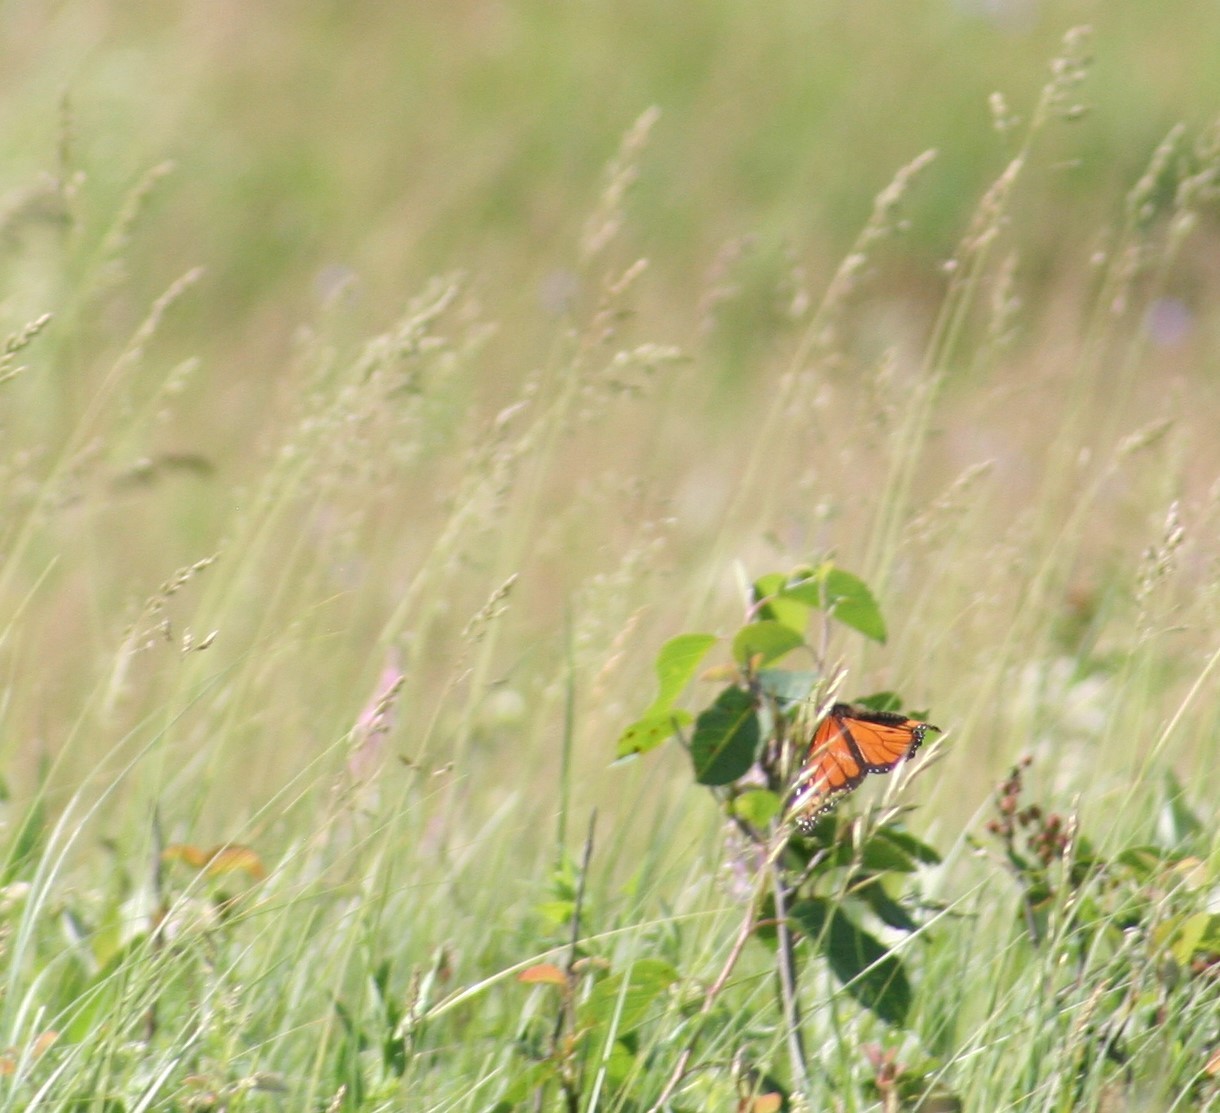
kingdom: Animalia
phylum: Arthropoda
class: Insecta
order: Lepidoptera
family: Nymphalidae
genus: Danaus
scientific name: Danaus plexippus
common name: Monarch
